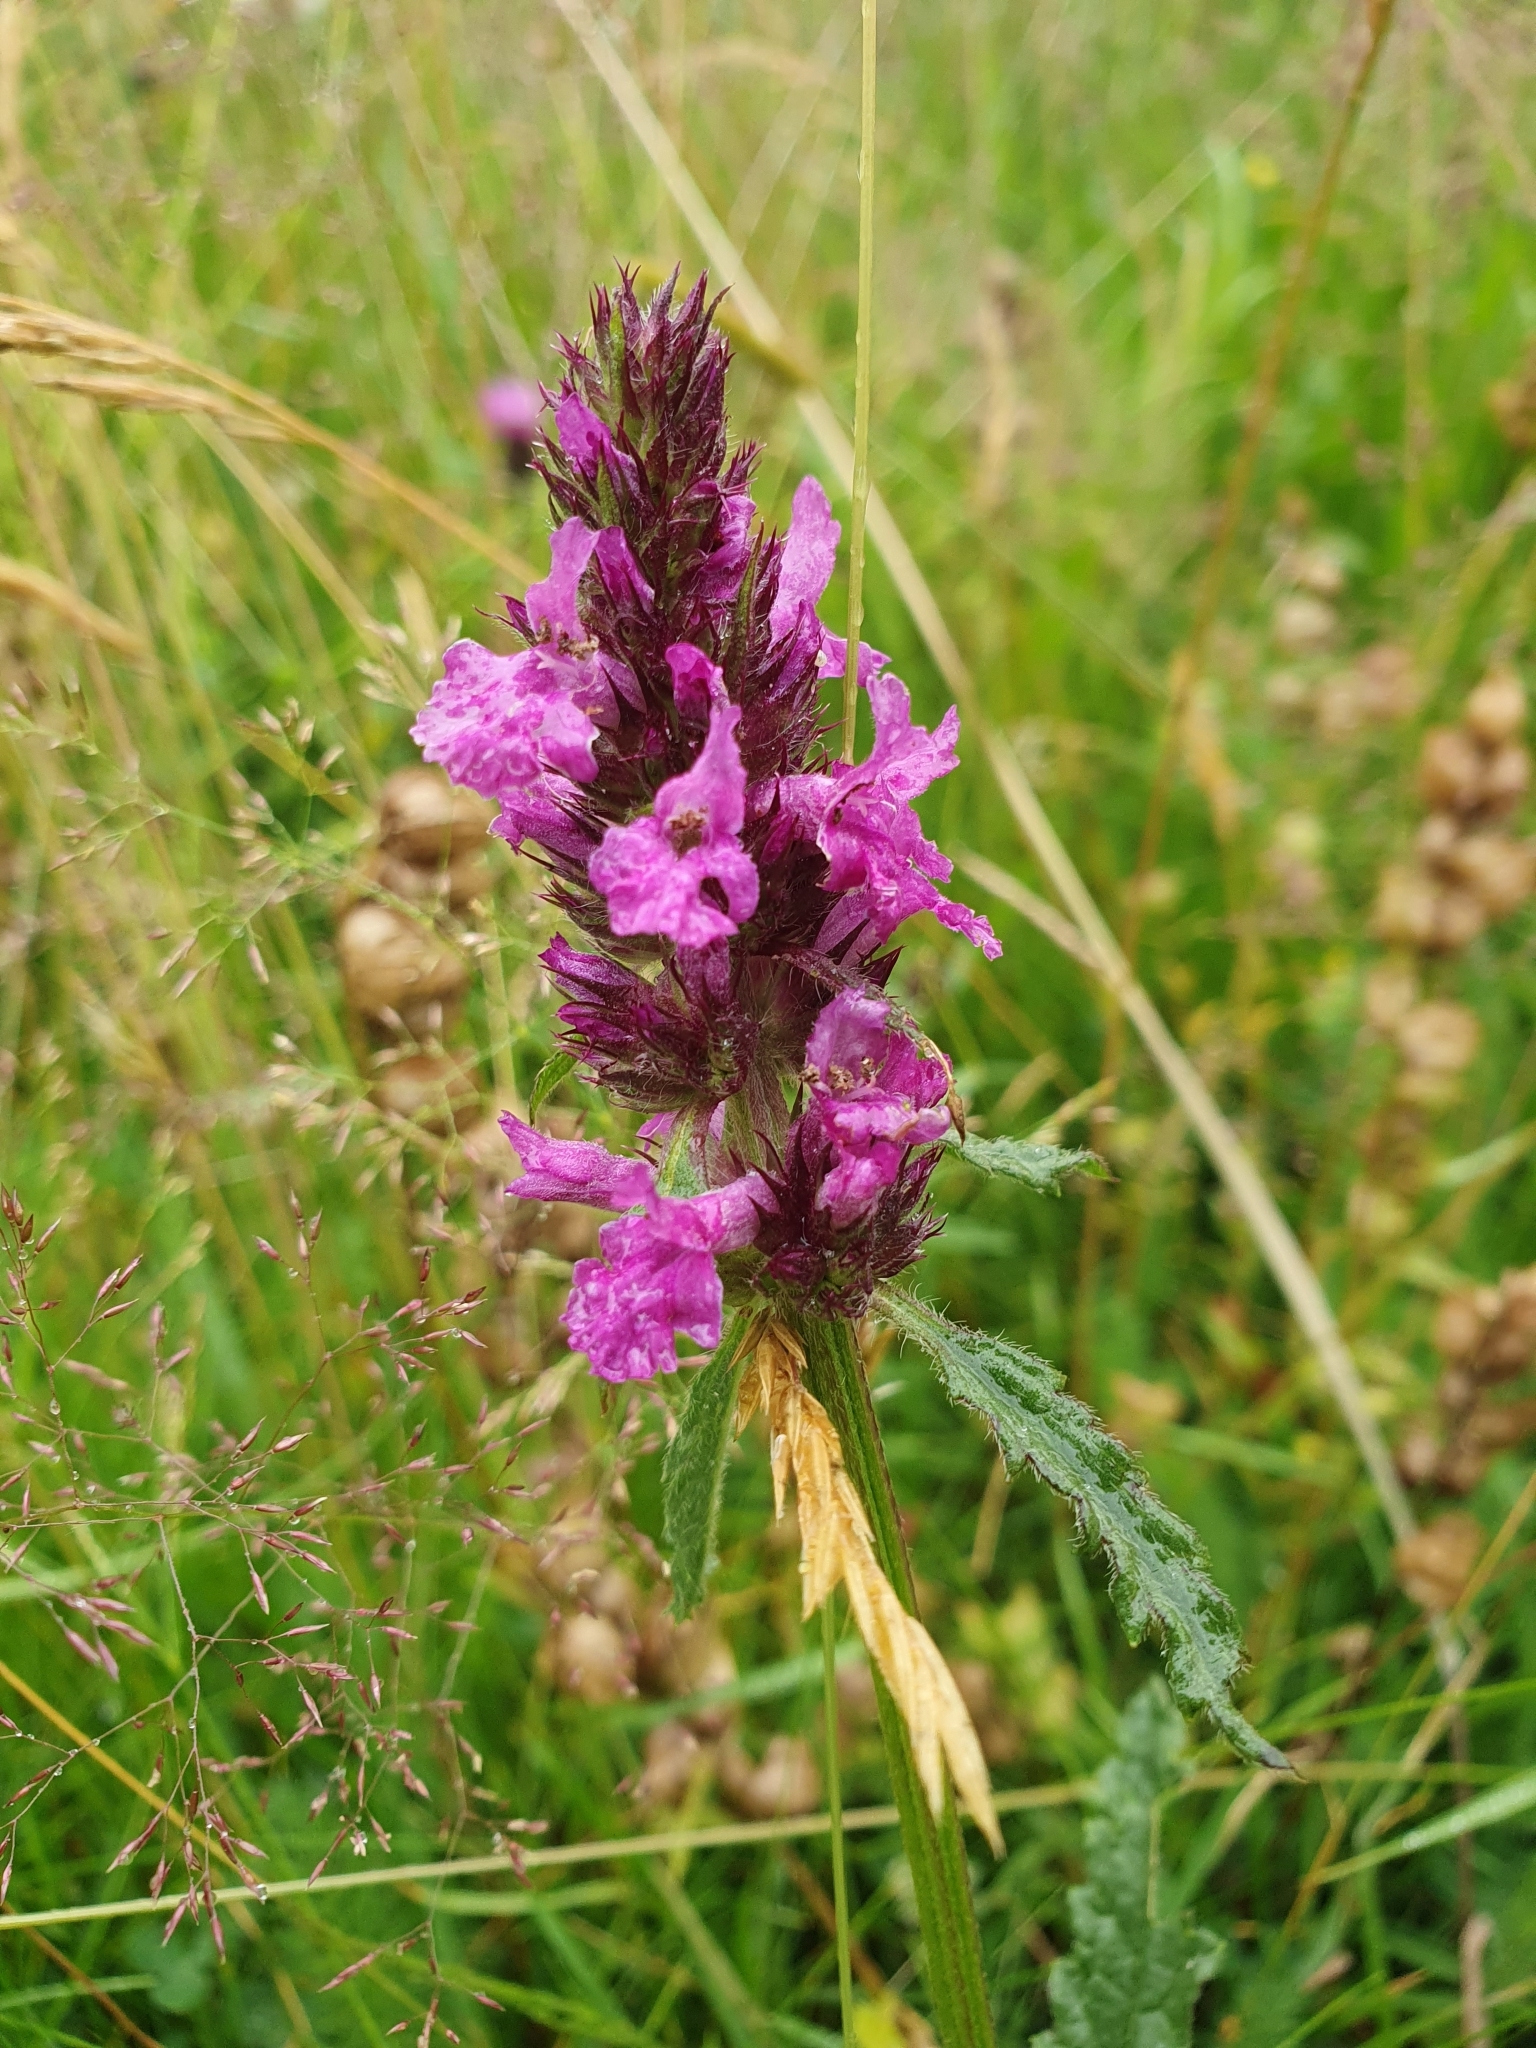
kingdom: Plantae
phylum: Tracheophyta
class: Magnoliopsida
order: Lamiales
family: Lamiaceae
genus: Betonica
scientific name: Betonica officinalis
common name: Bishop's-wort
